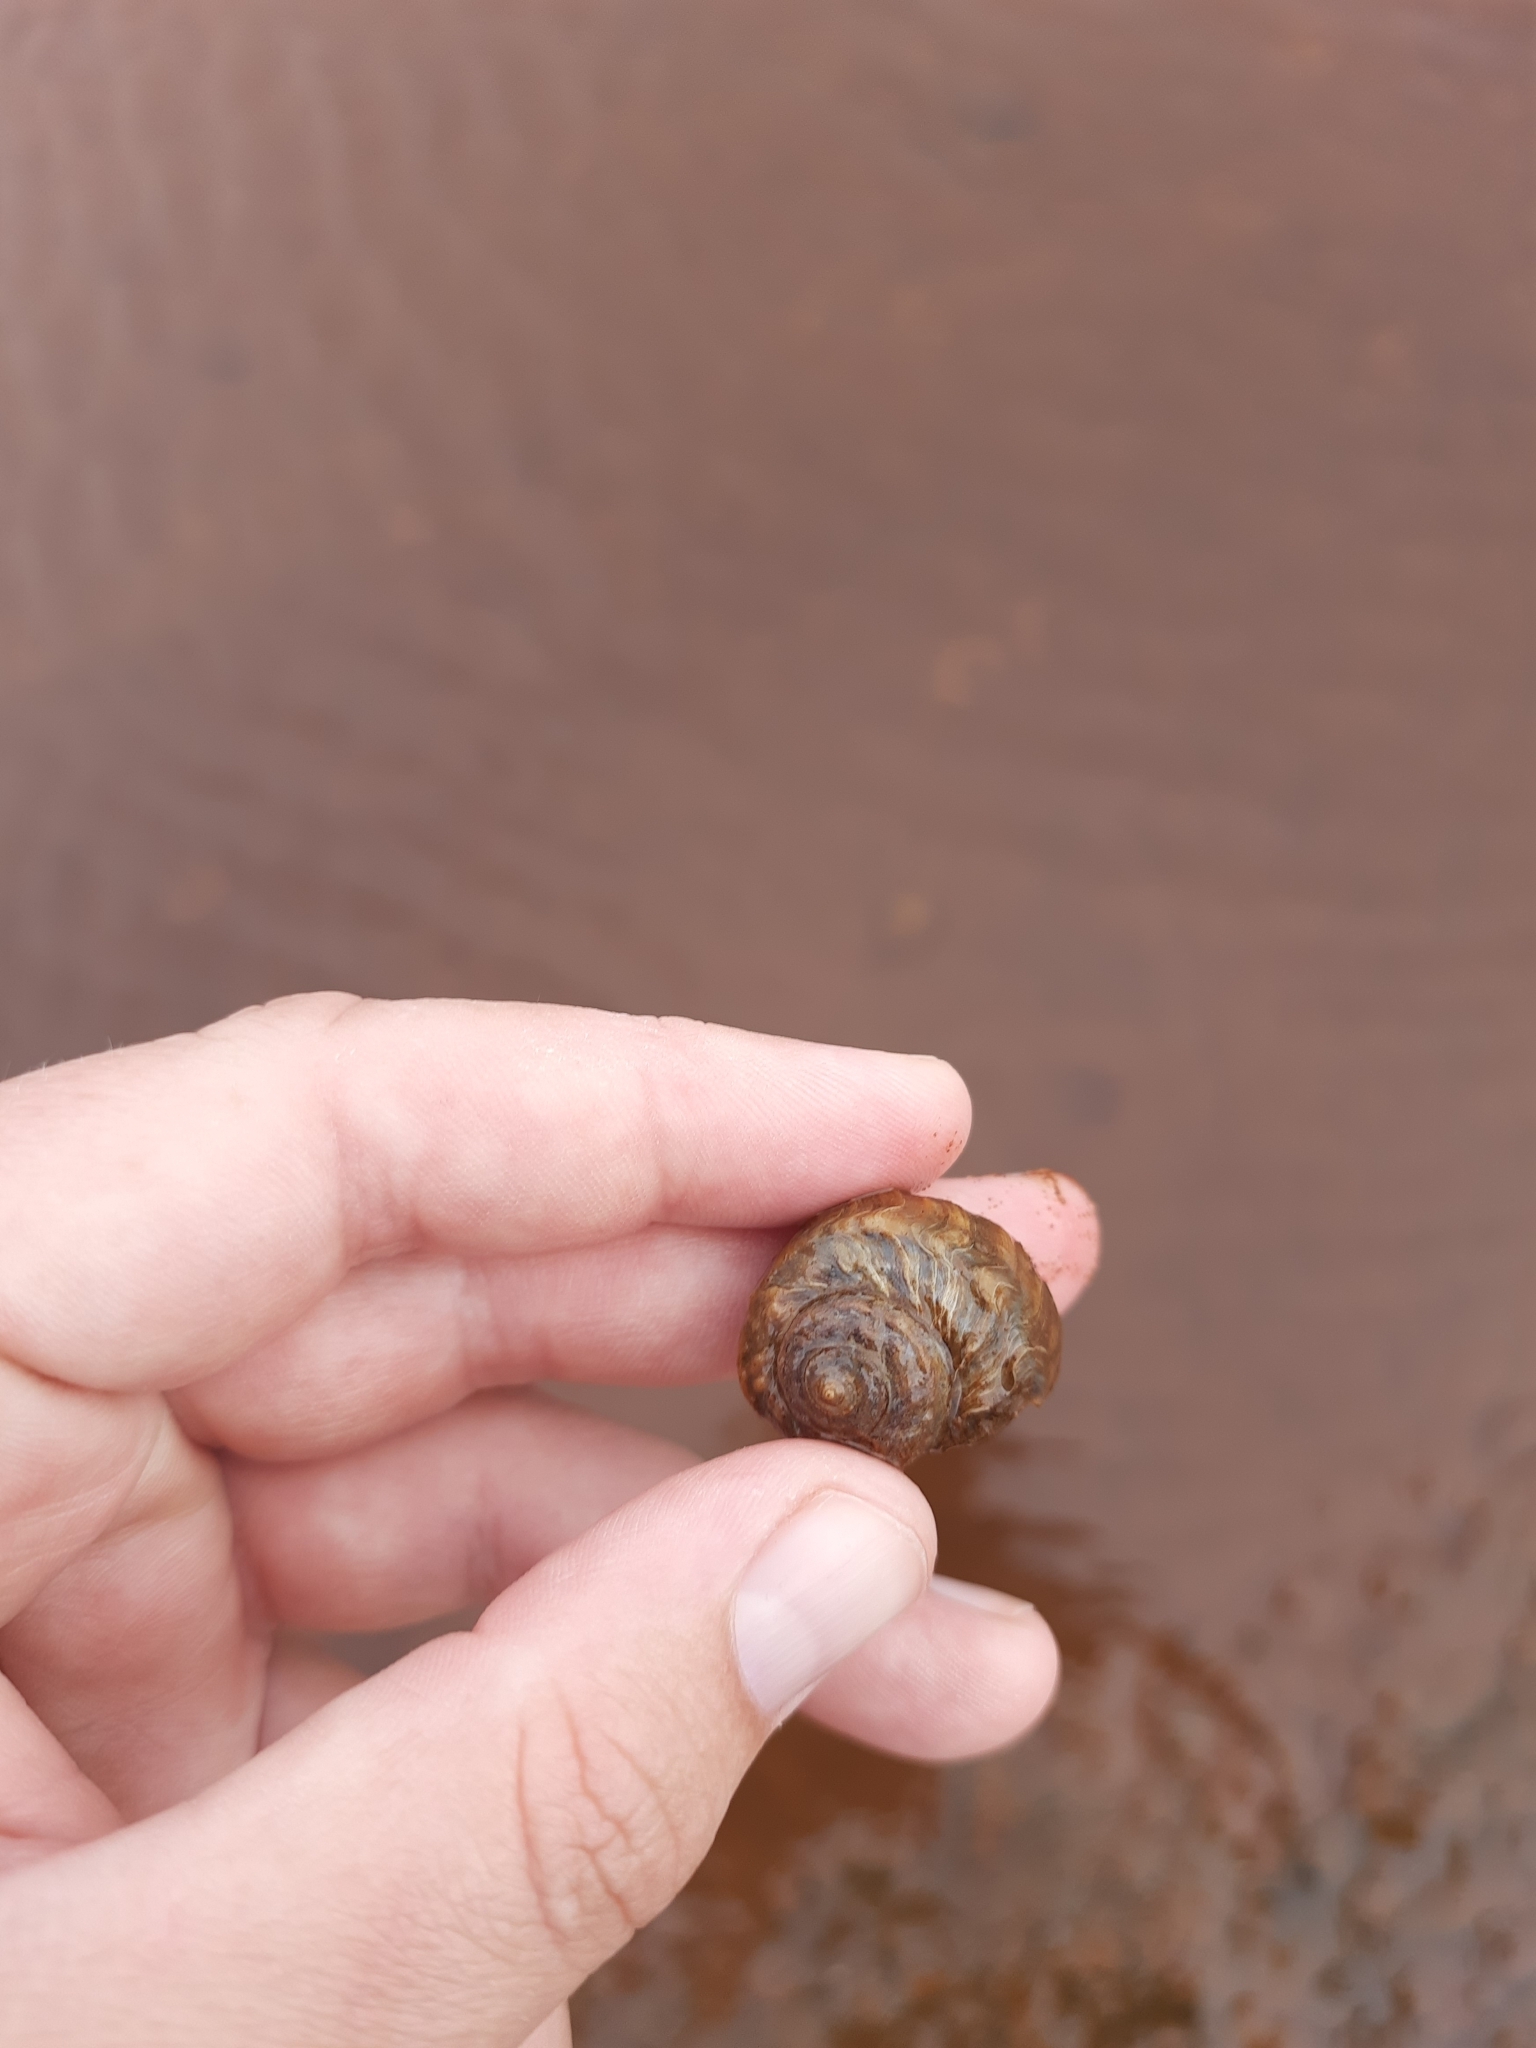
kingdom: Animalia
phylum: Mollusca
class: Gastropoda
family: Amphibolidae
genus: Amphibola
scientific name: Amphibola crenata
